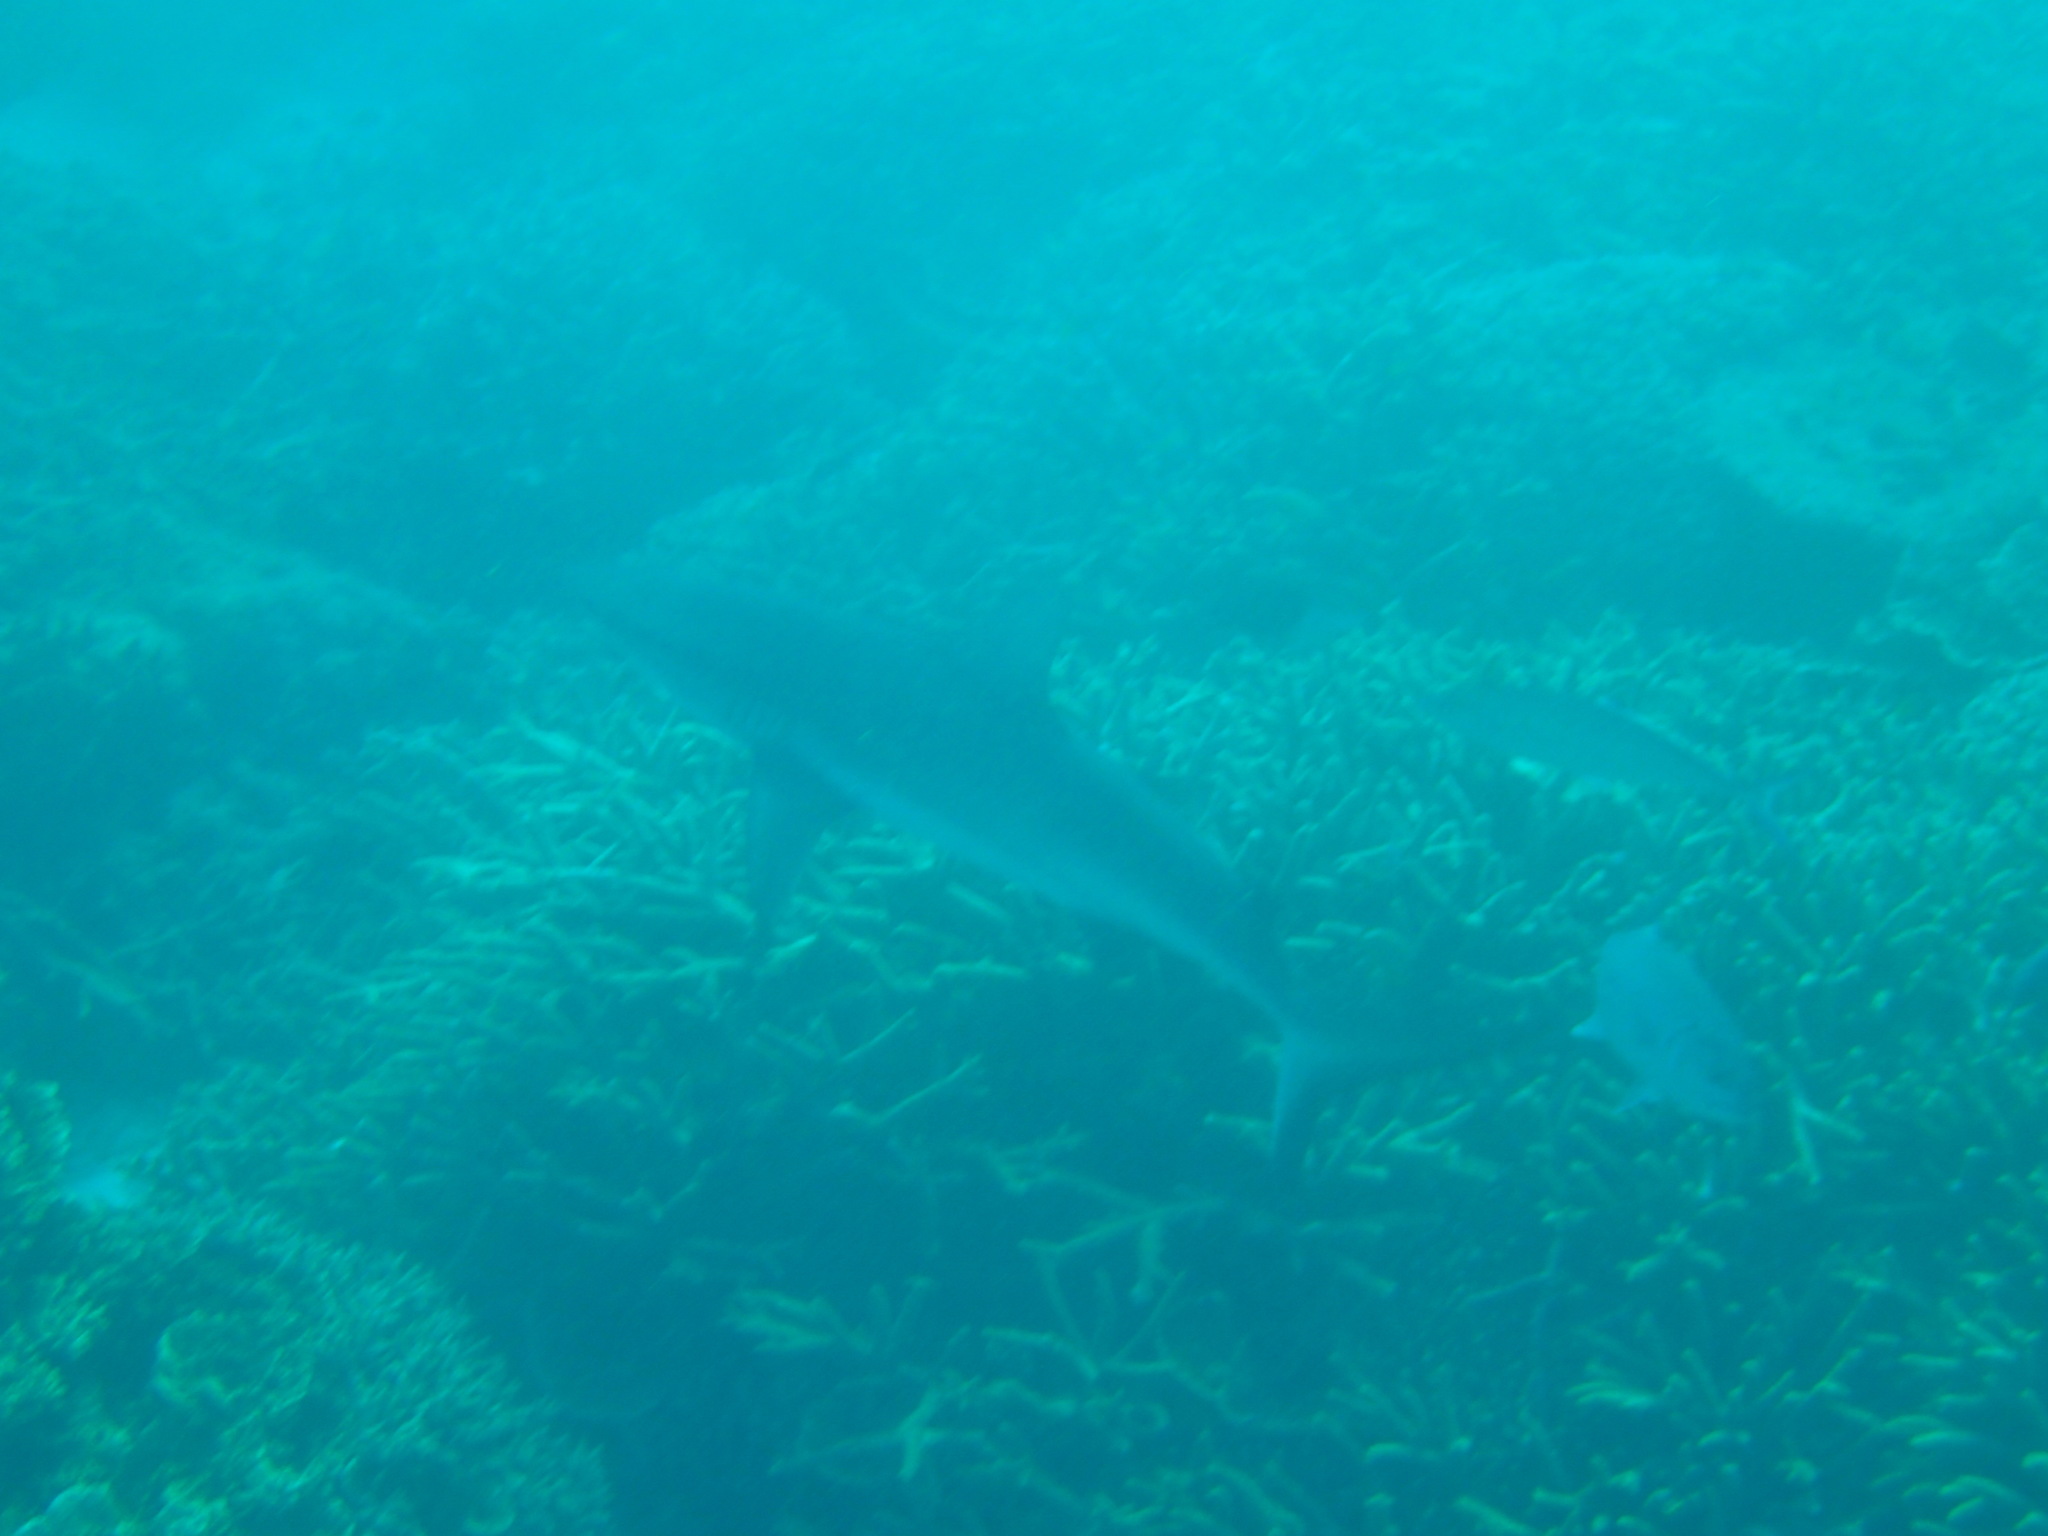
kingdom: Animalia
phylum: Chordata
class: Elasmobranchii
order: Carcharhiniformes
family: Carcharhinidae
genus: Carcharhinus
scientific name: Carcharhinus amblyrhynchos
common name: Grey reef shark
